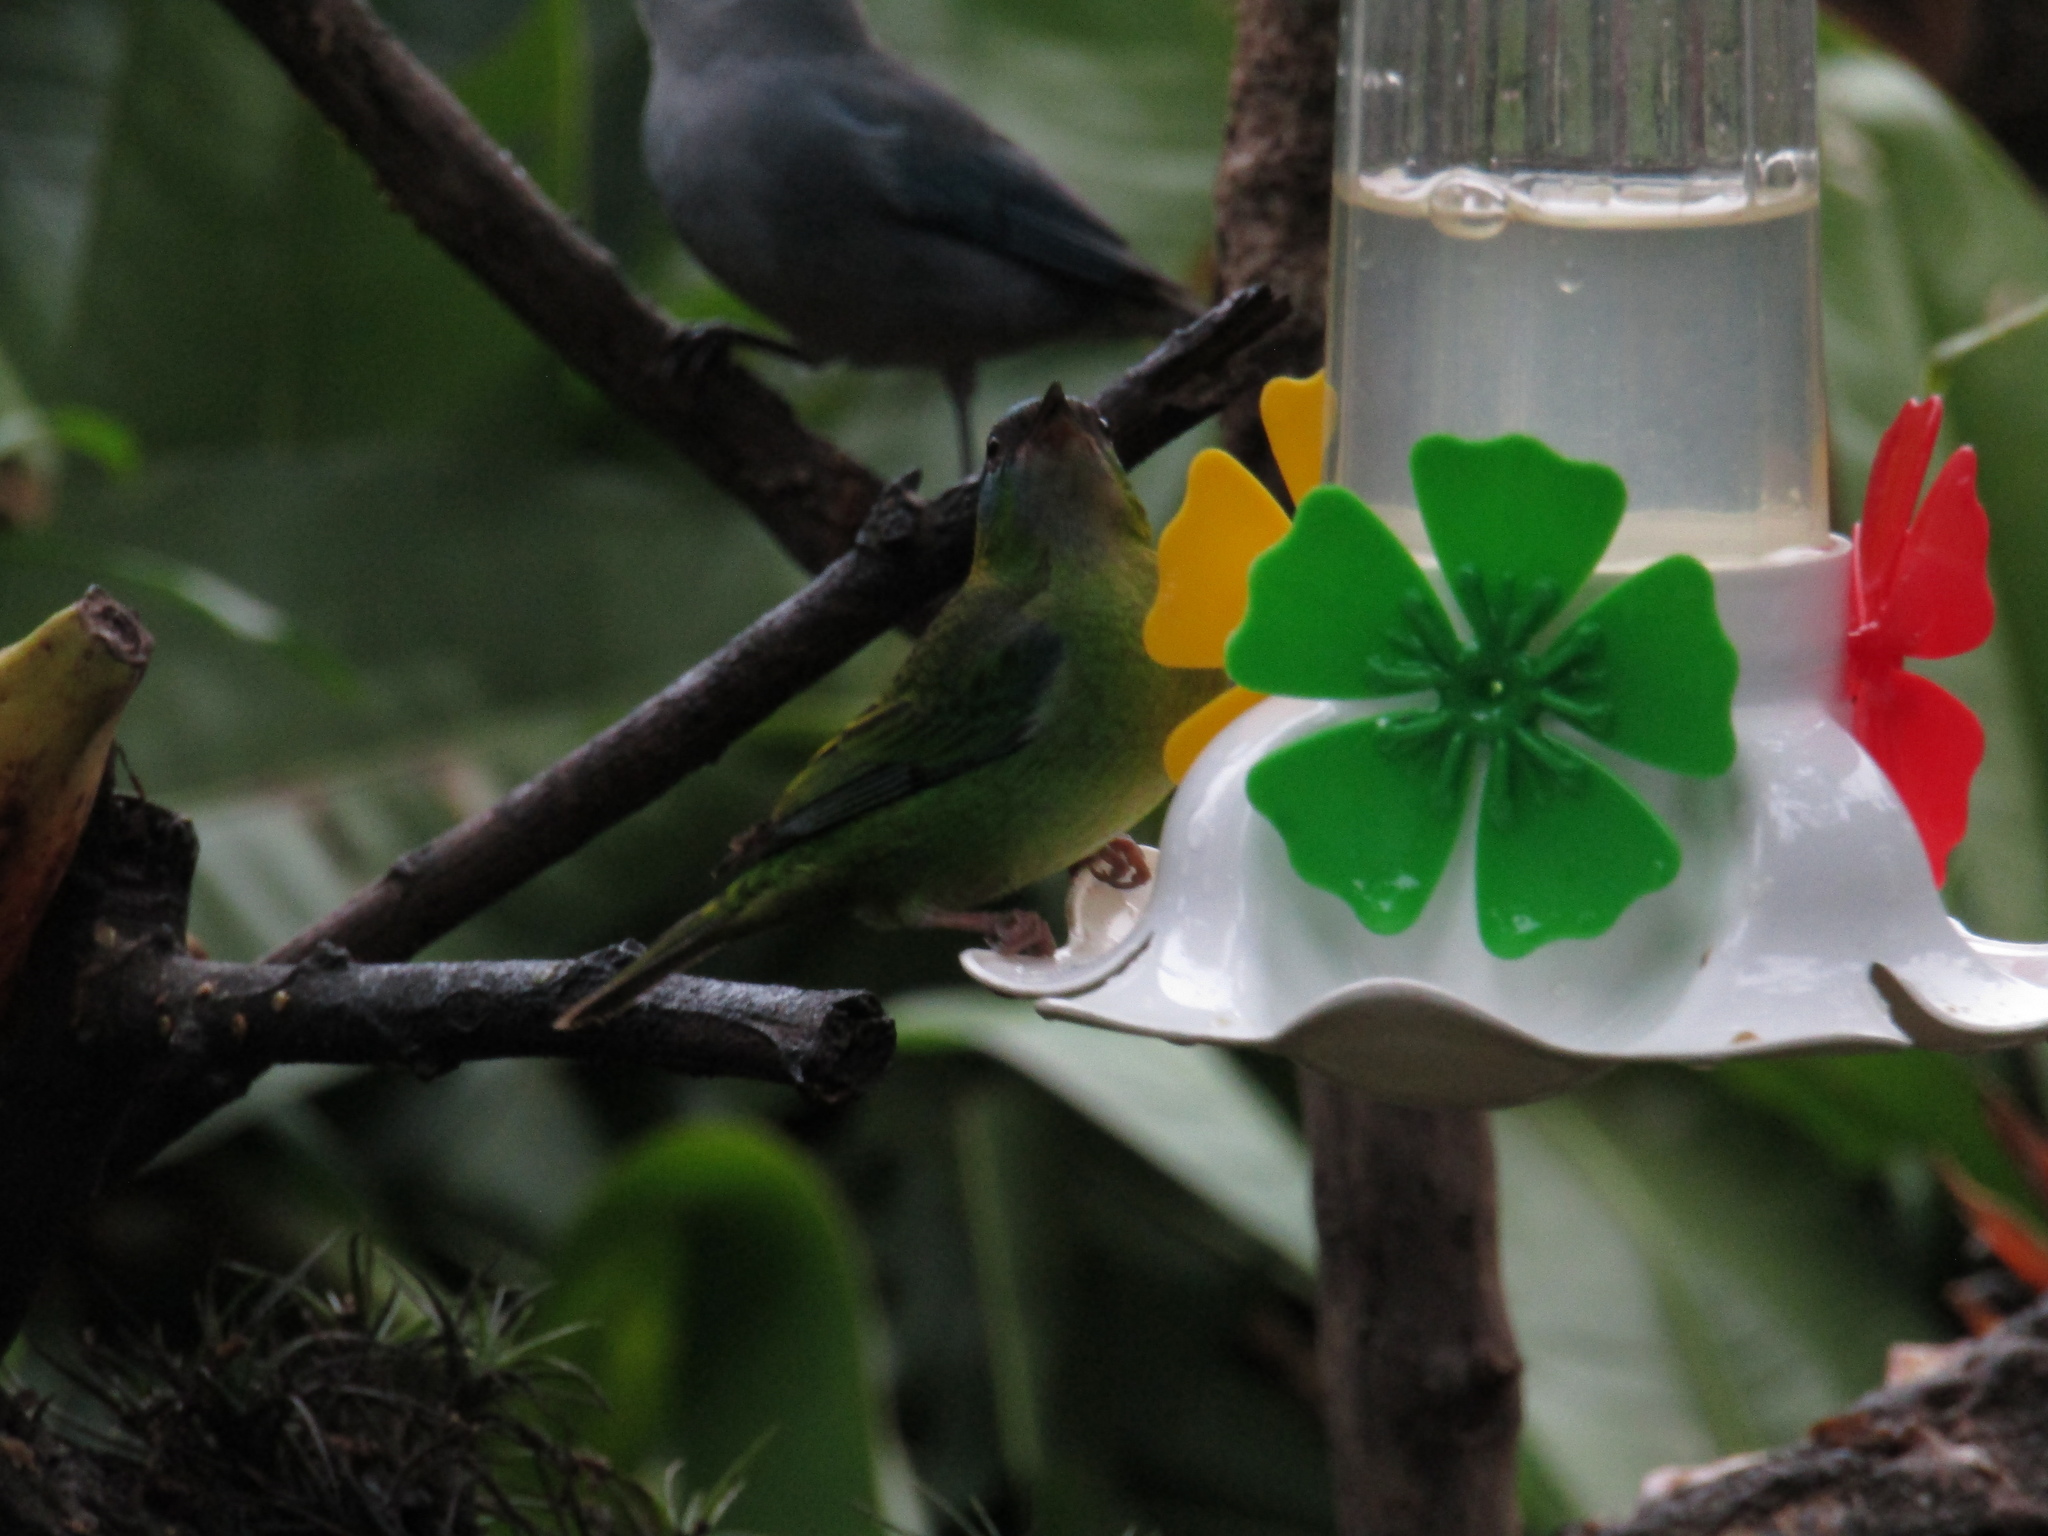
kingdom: Animalia
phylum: Chordata
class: Aves
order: Passeriformes
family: Thraupidae
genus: Dacnis
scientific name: Dacnis cayana
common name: Blue dacnis
